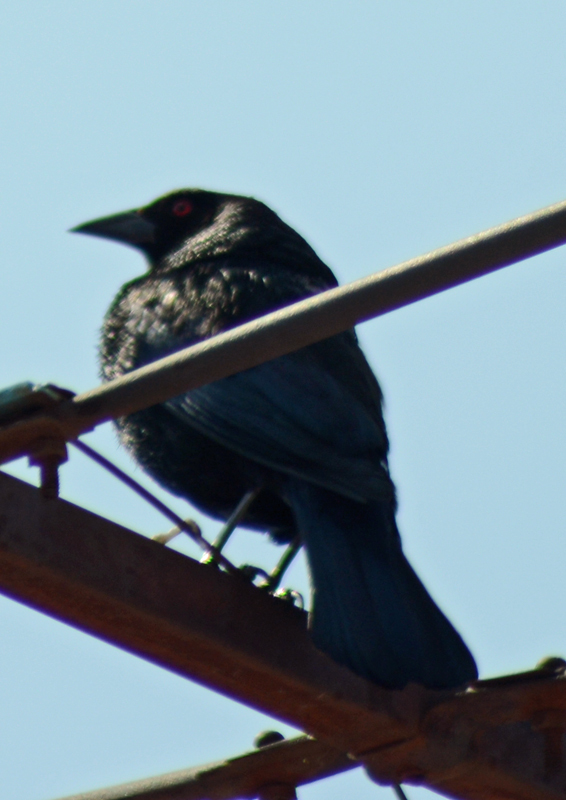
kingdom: Animalia
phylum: Chordata
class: Aves
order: Passeriformes
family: Icteridae
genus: Molothrus
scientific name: Molothrus aeneus
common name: Bronzed cowbird
